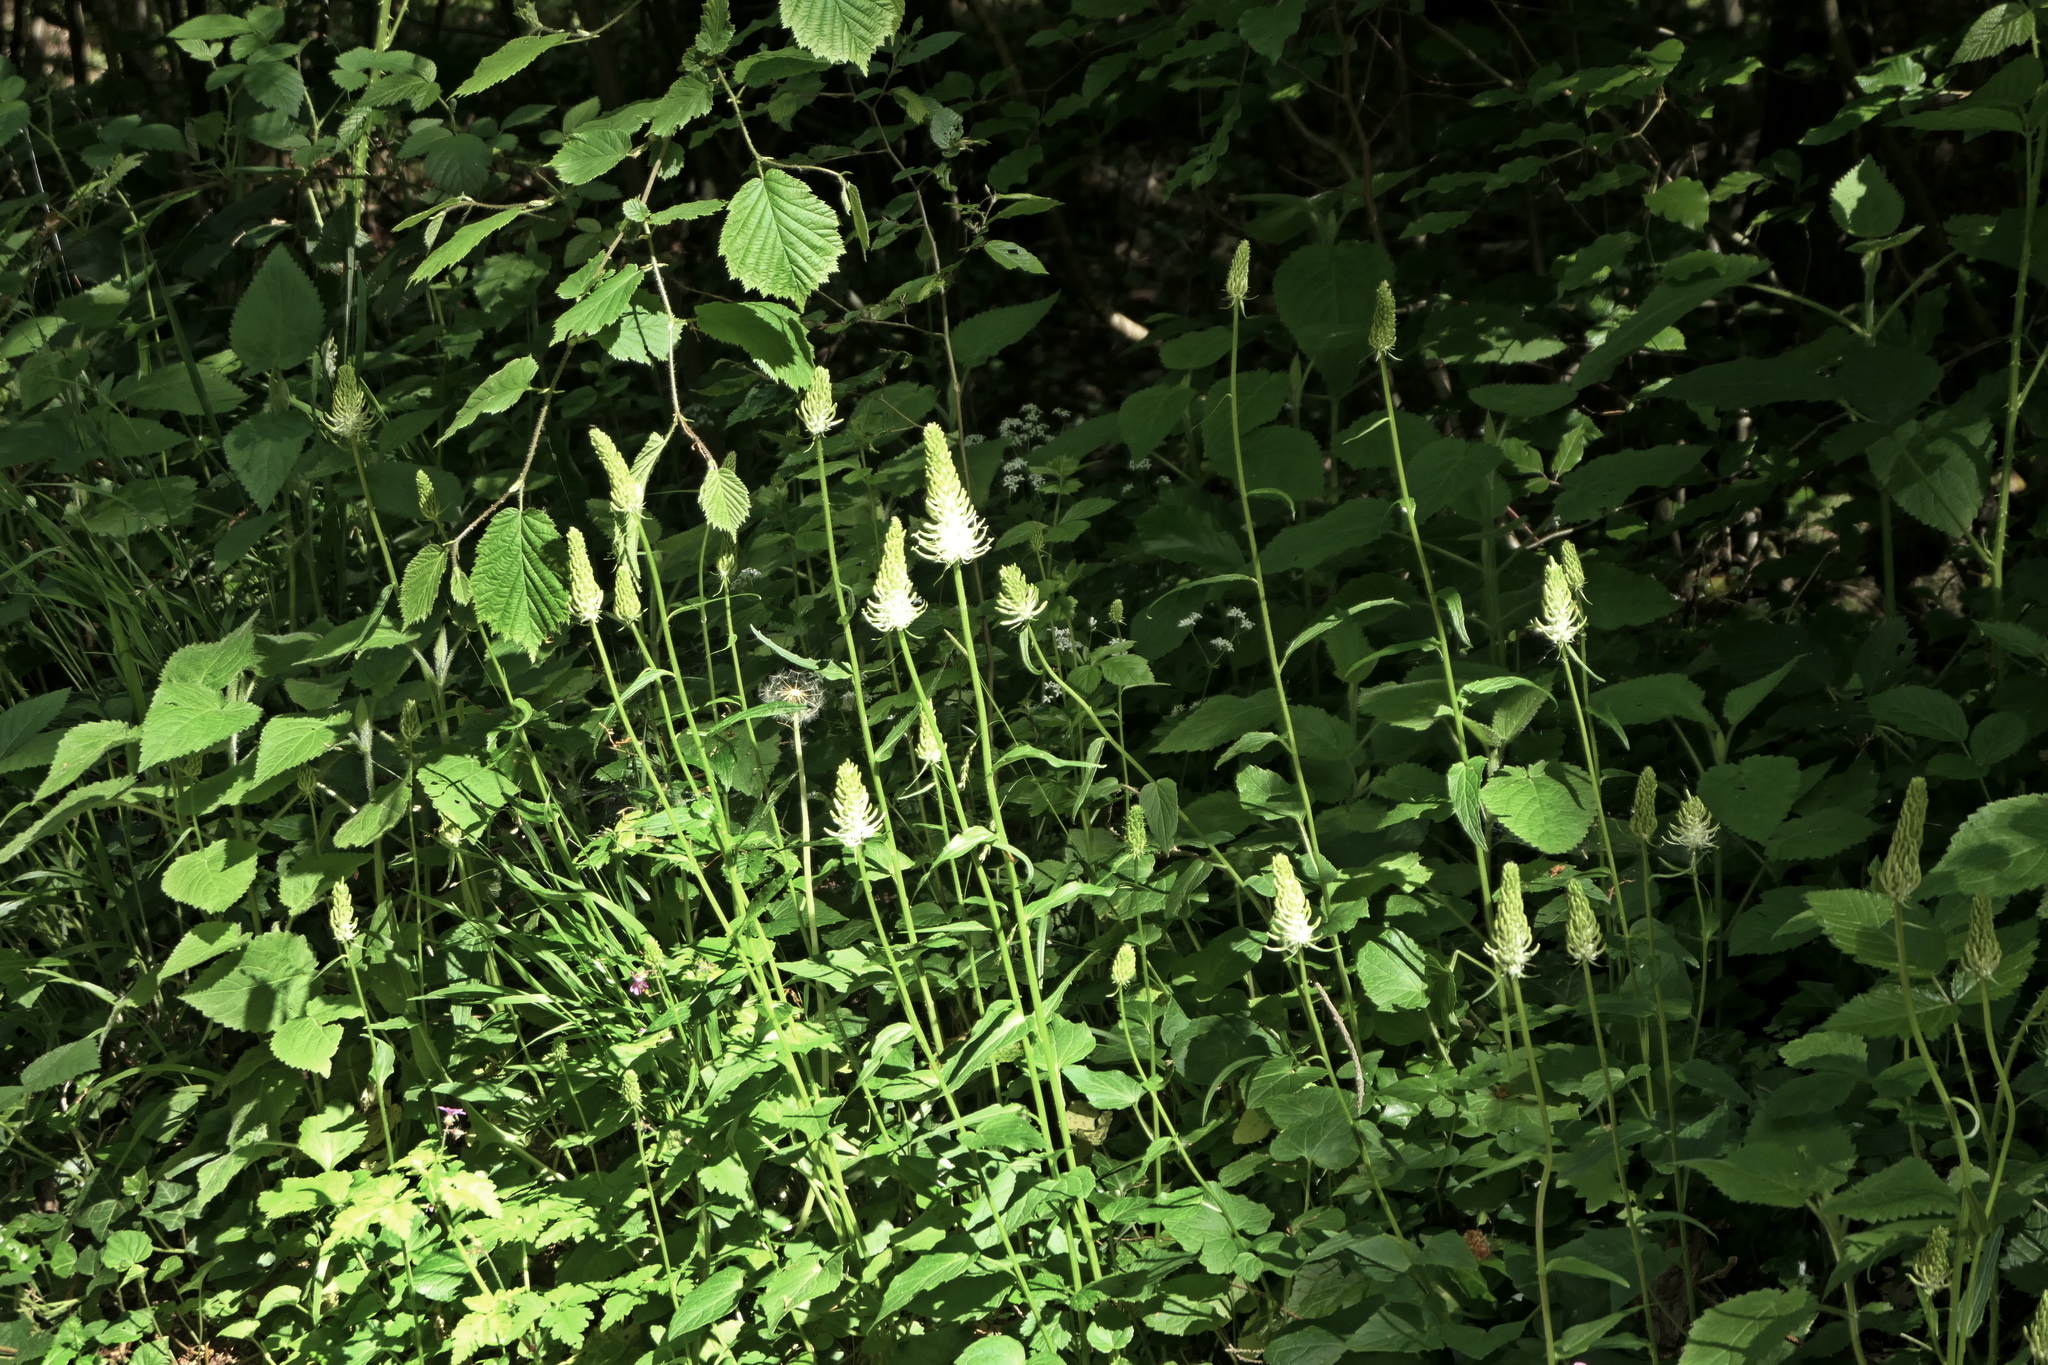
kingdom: Plantae
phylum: Tracheophyta
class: Magnoliopsida
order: Asterales
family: Campanulaceae
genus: Phyteuma
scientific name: Phyteuma spicatum
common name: Spiked rampion
